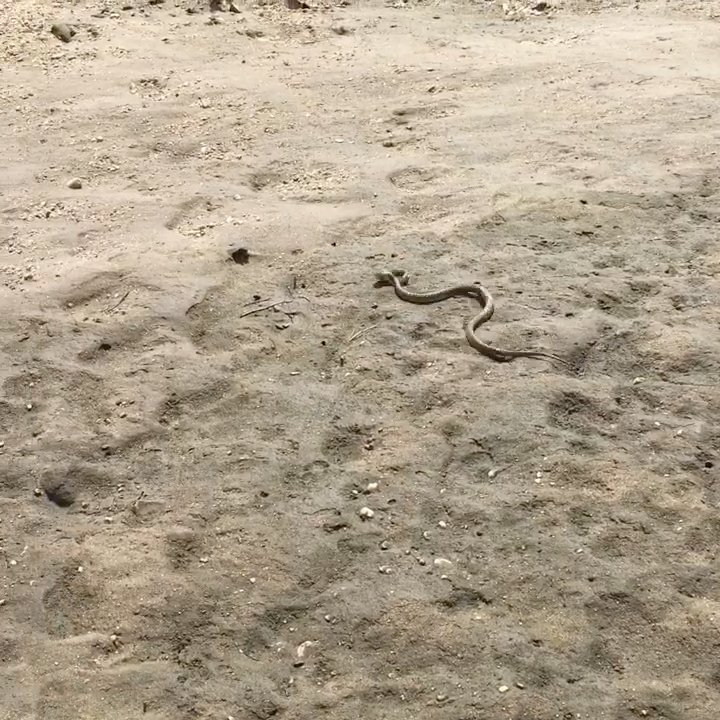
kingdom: Animalia
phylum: Chordata
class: Squamata
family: Colubridae
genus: Nerodia
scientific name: Nerodia sipedon
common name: Northern water snake
